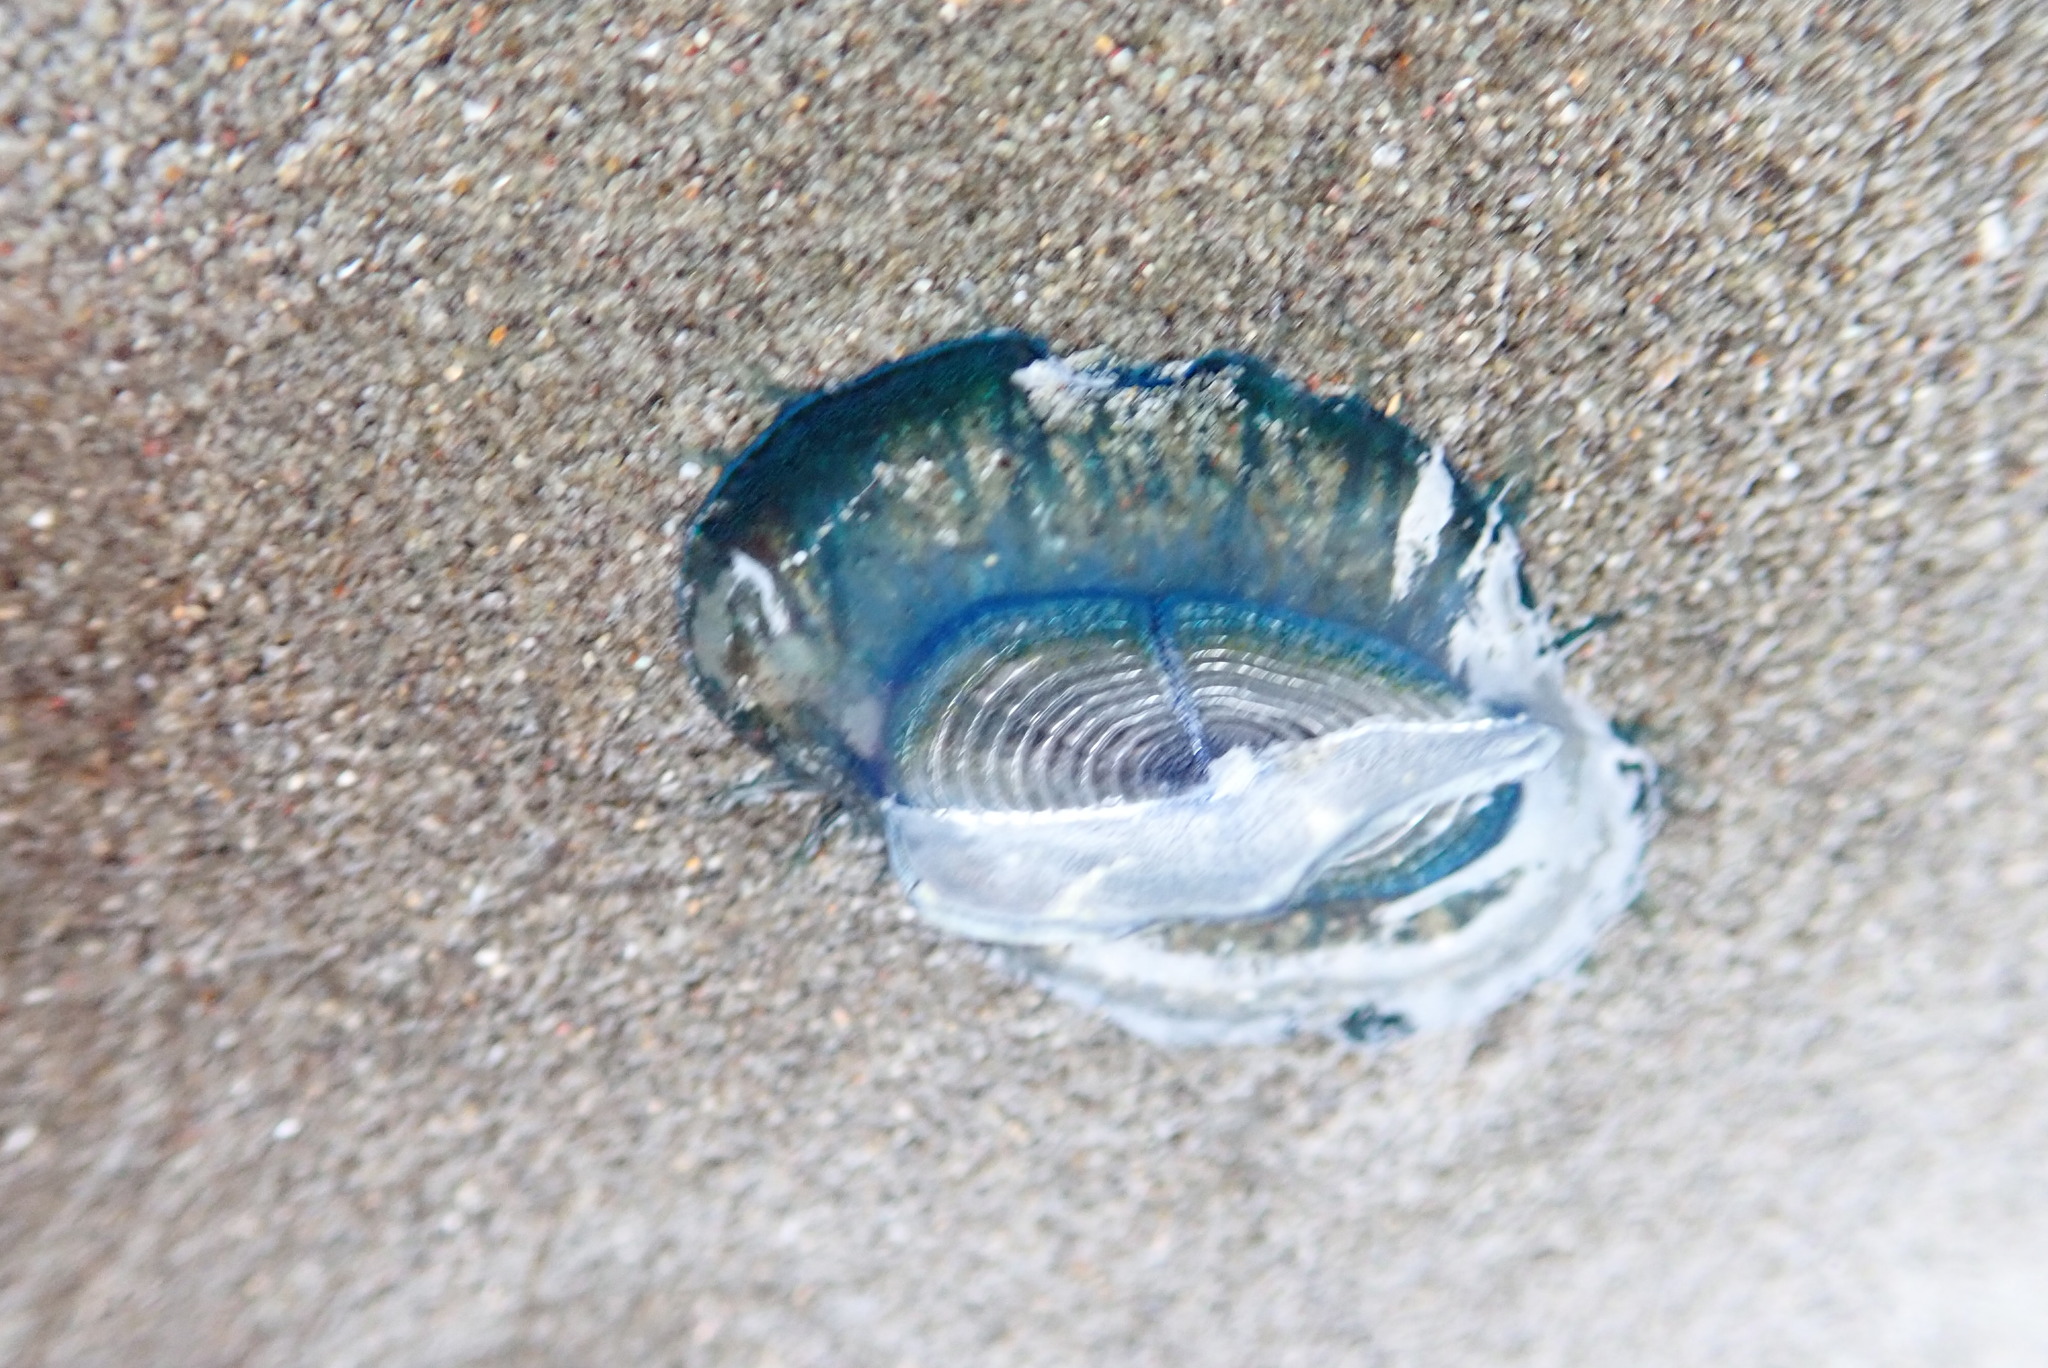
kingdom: Animalia
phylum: Cnidaria
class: Hydrozoa
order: Anthoathecata
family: Porpitidae
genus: Velella
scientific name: Velella velella
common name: By-the-wind-sailor
